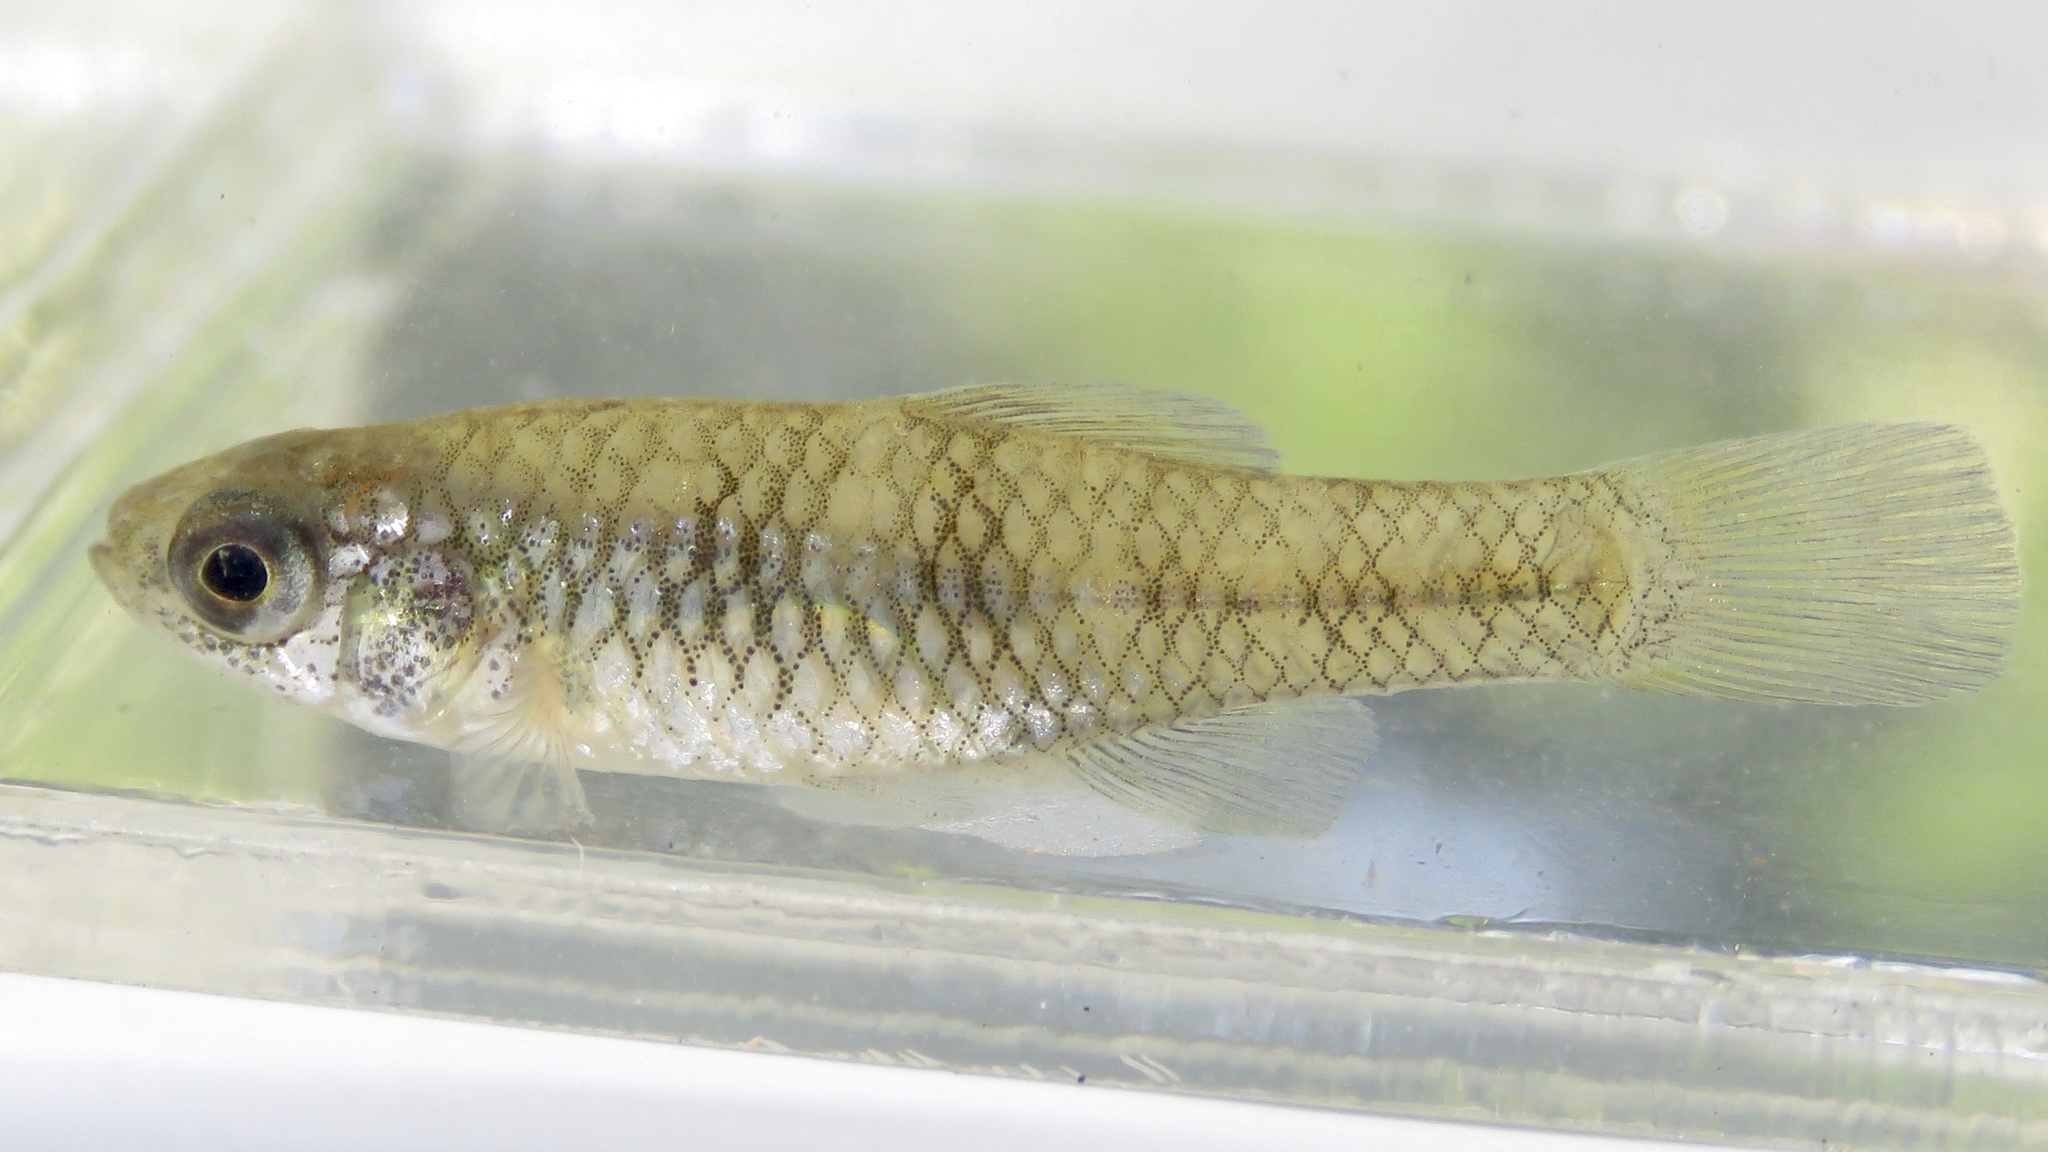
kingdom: Animalia
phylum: Chordata
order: Cyprinodontiformes
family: Fundulidae
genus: Lucania
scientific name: Lucania parva
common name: Rainwater killifish
